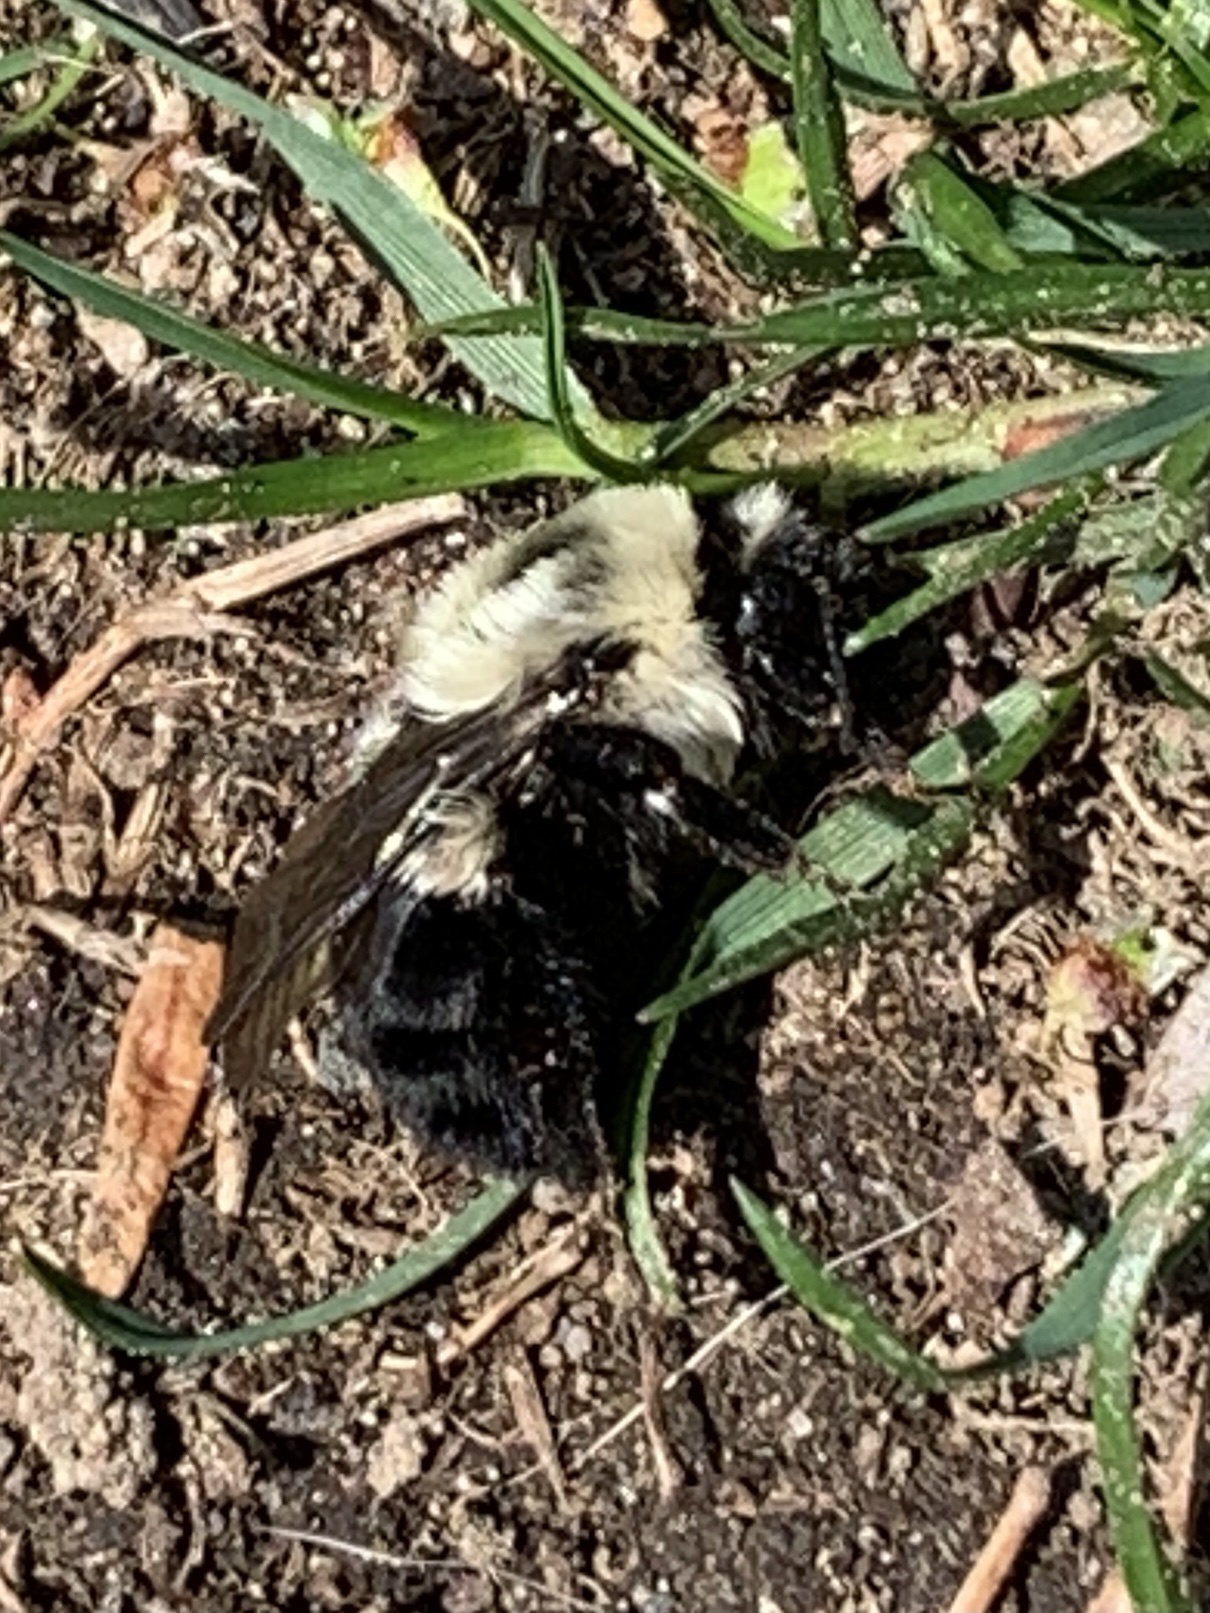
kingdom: Animalia
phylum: Arthropoda
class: Insecta
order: Hymenoptera
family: Apidae
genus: Bombus
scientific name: Bombus impatiens
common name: Common eastern bumble bee
